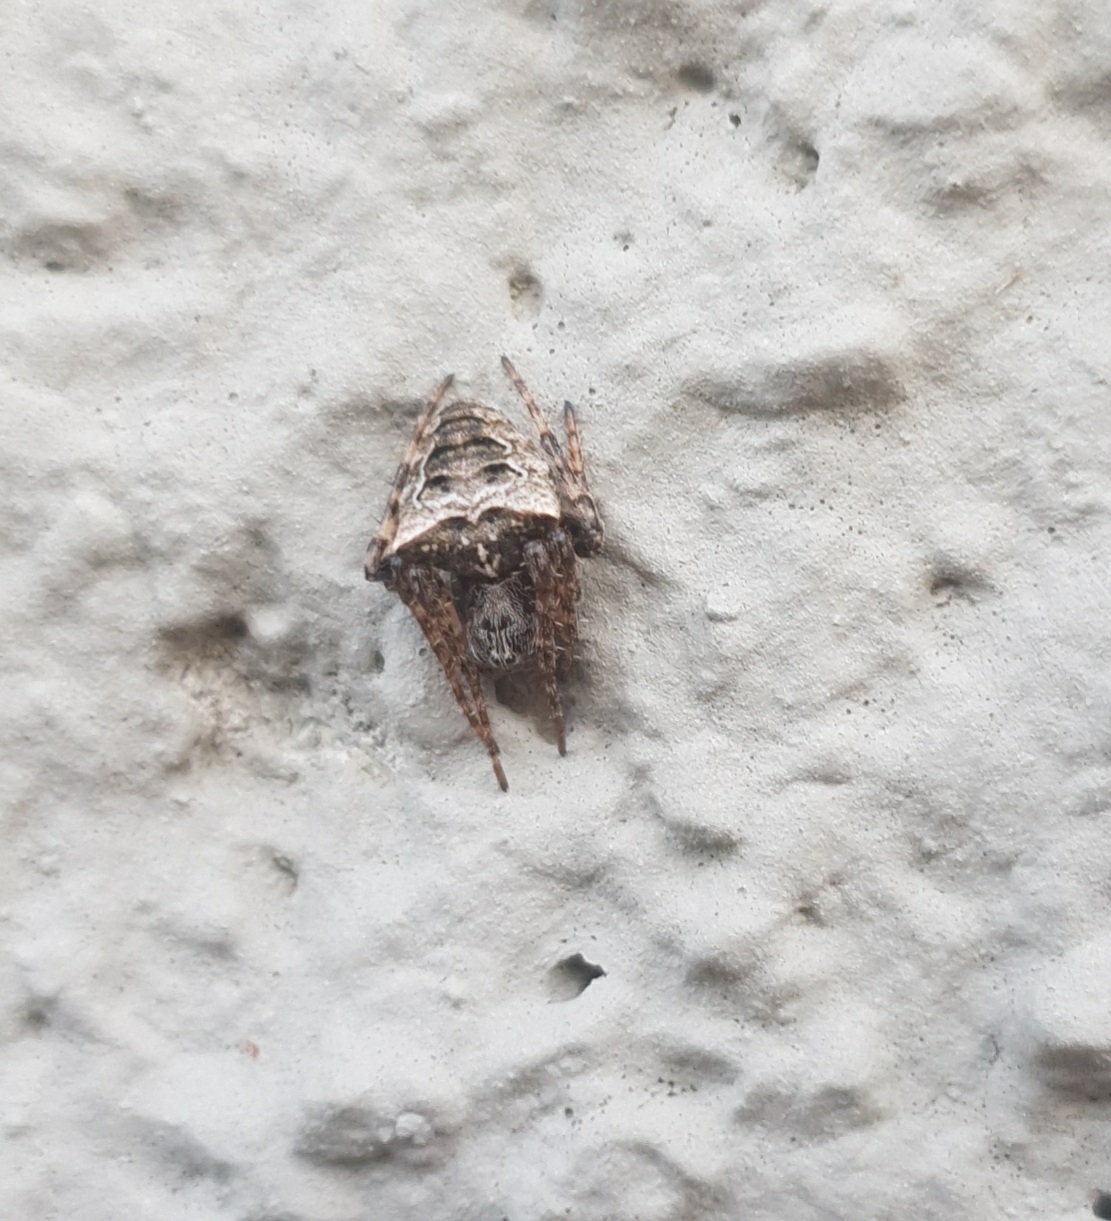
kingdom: Animalia
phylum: Arthropoda
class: Arachnida
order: Araneae
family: Araneidae
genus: Gibbaranea
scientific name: Gibbaranea bituberculata
